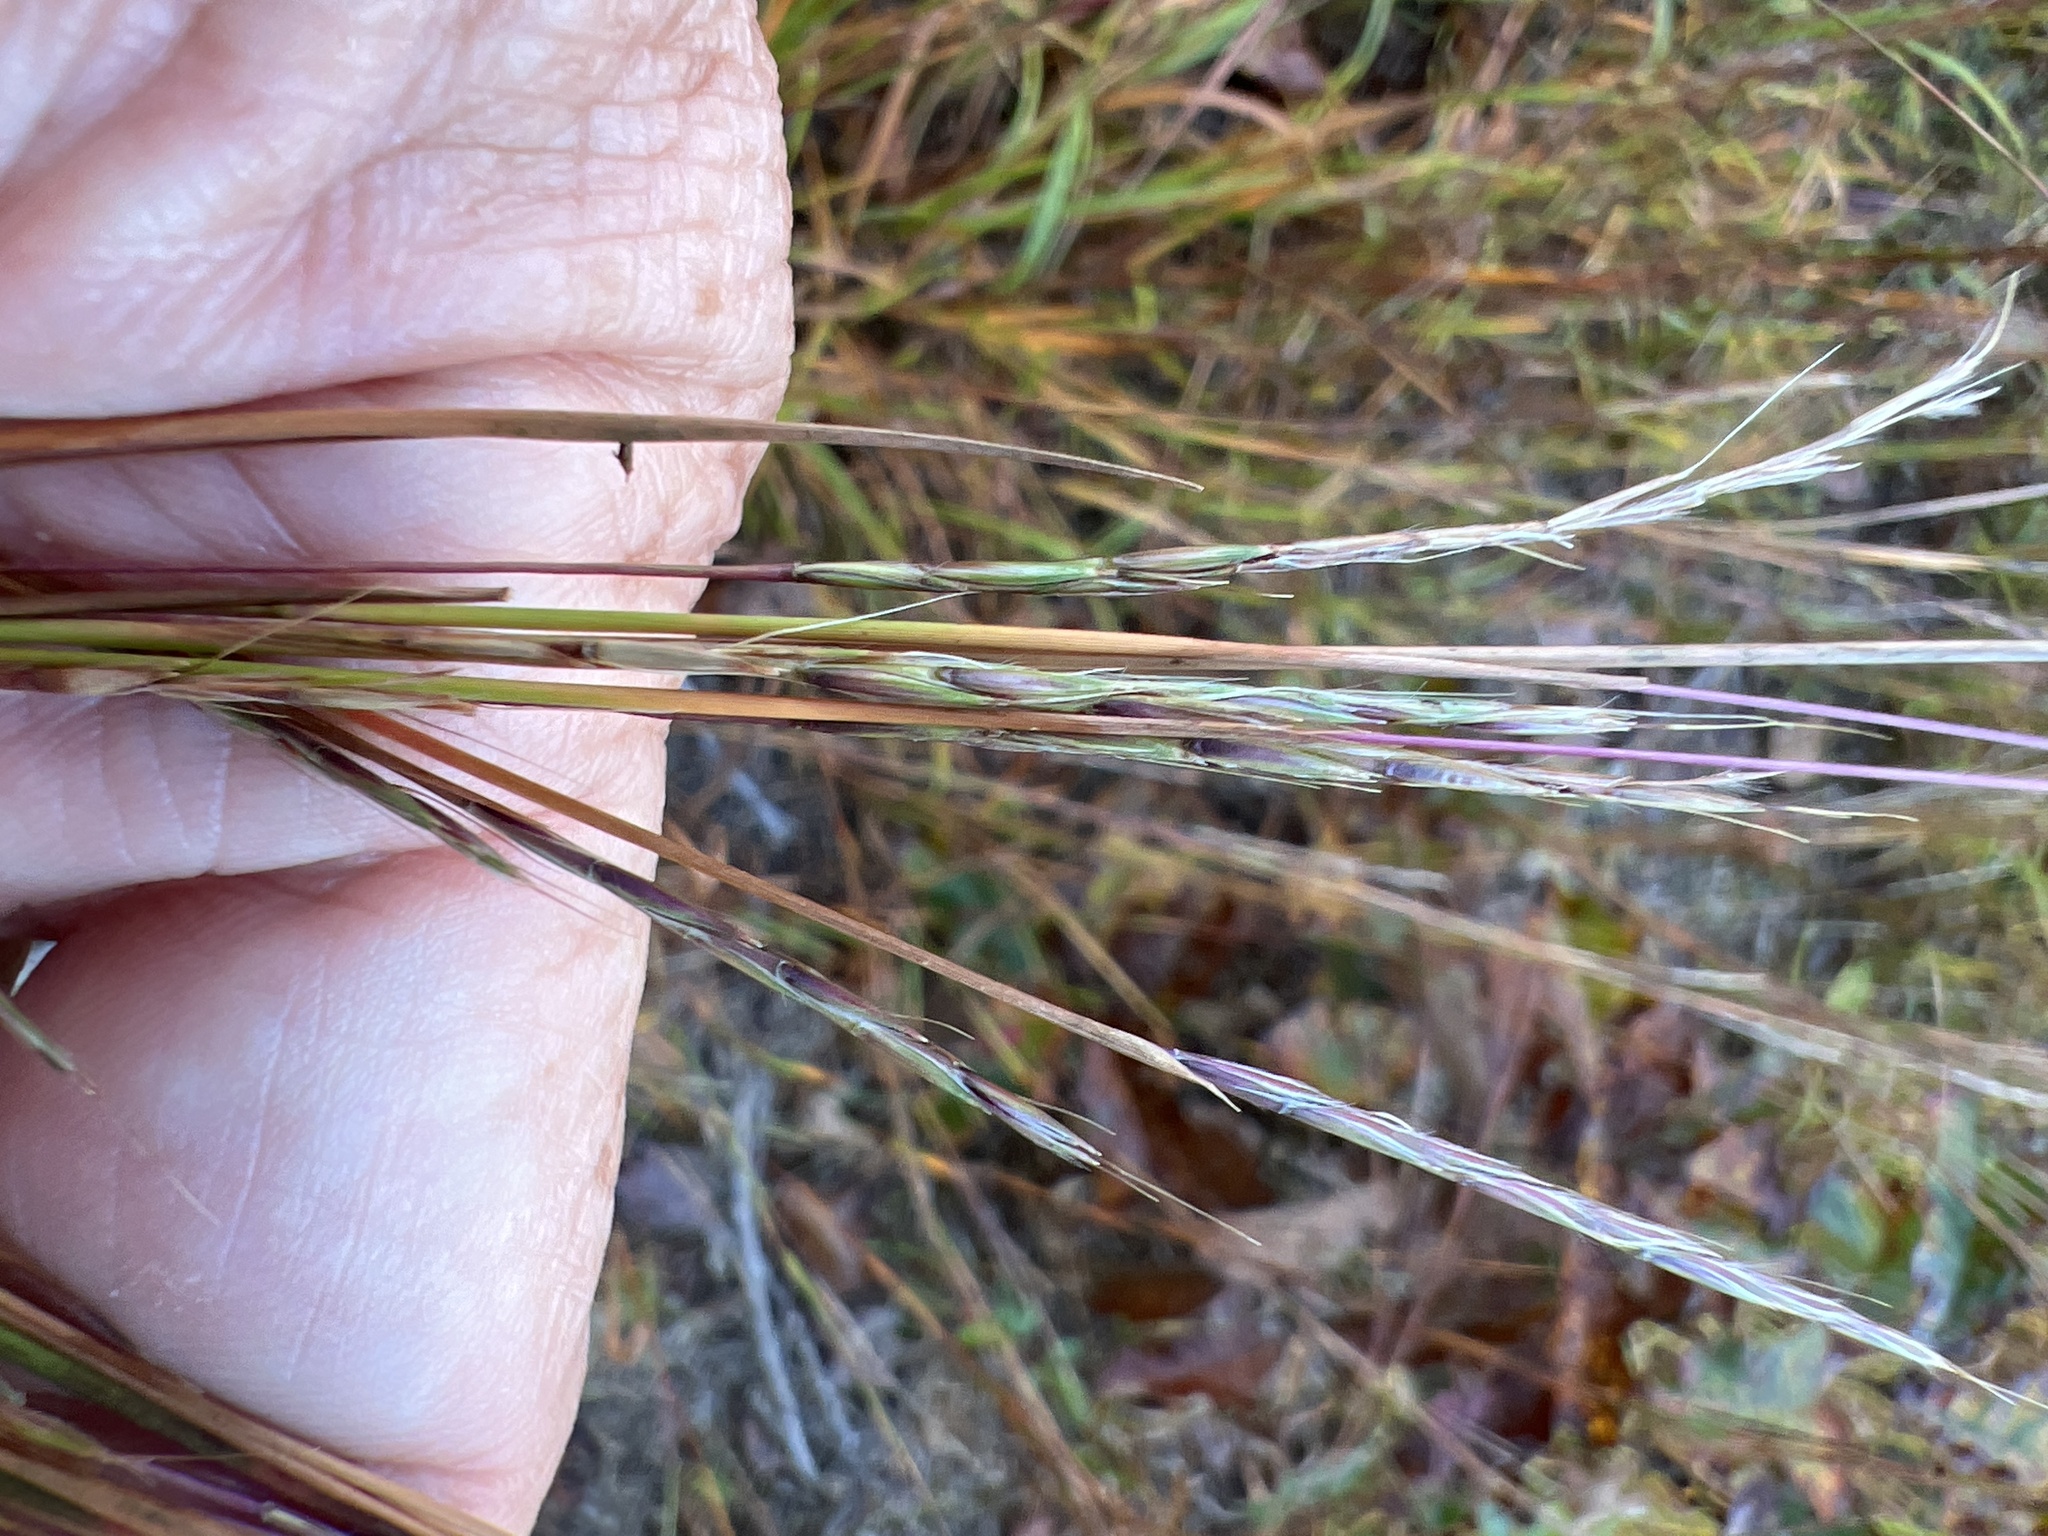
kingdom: Plantae
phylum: Tracheophyta
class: Liliopsida
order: Poales
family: Poaceae
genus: Schizachyrium
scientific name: Schizachyrium scoparium
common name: Little bluestem
